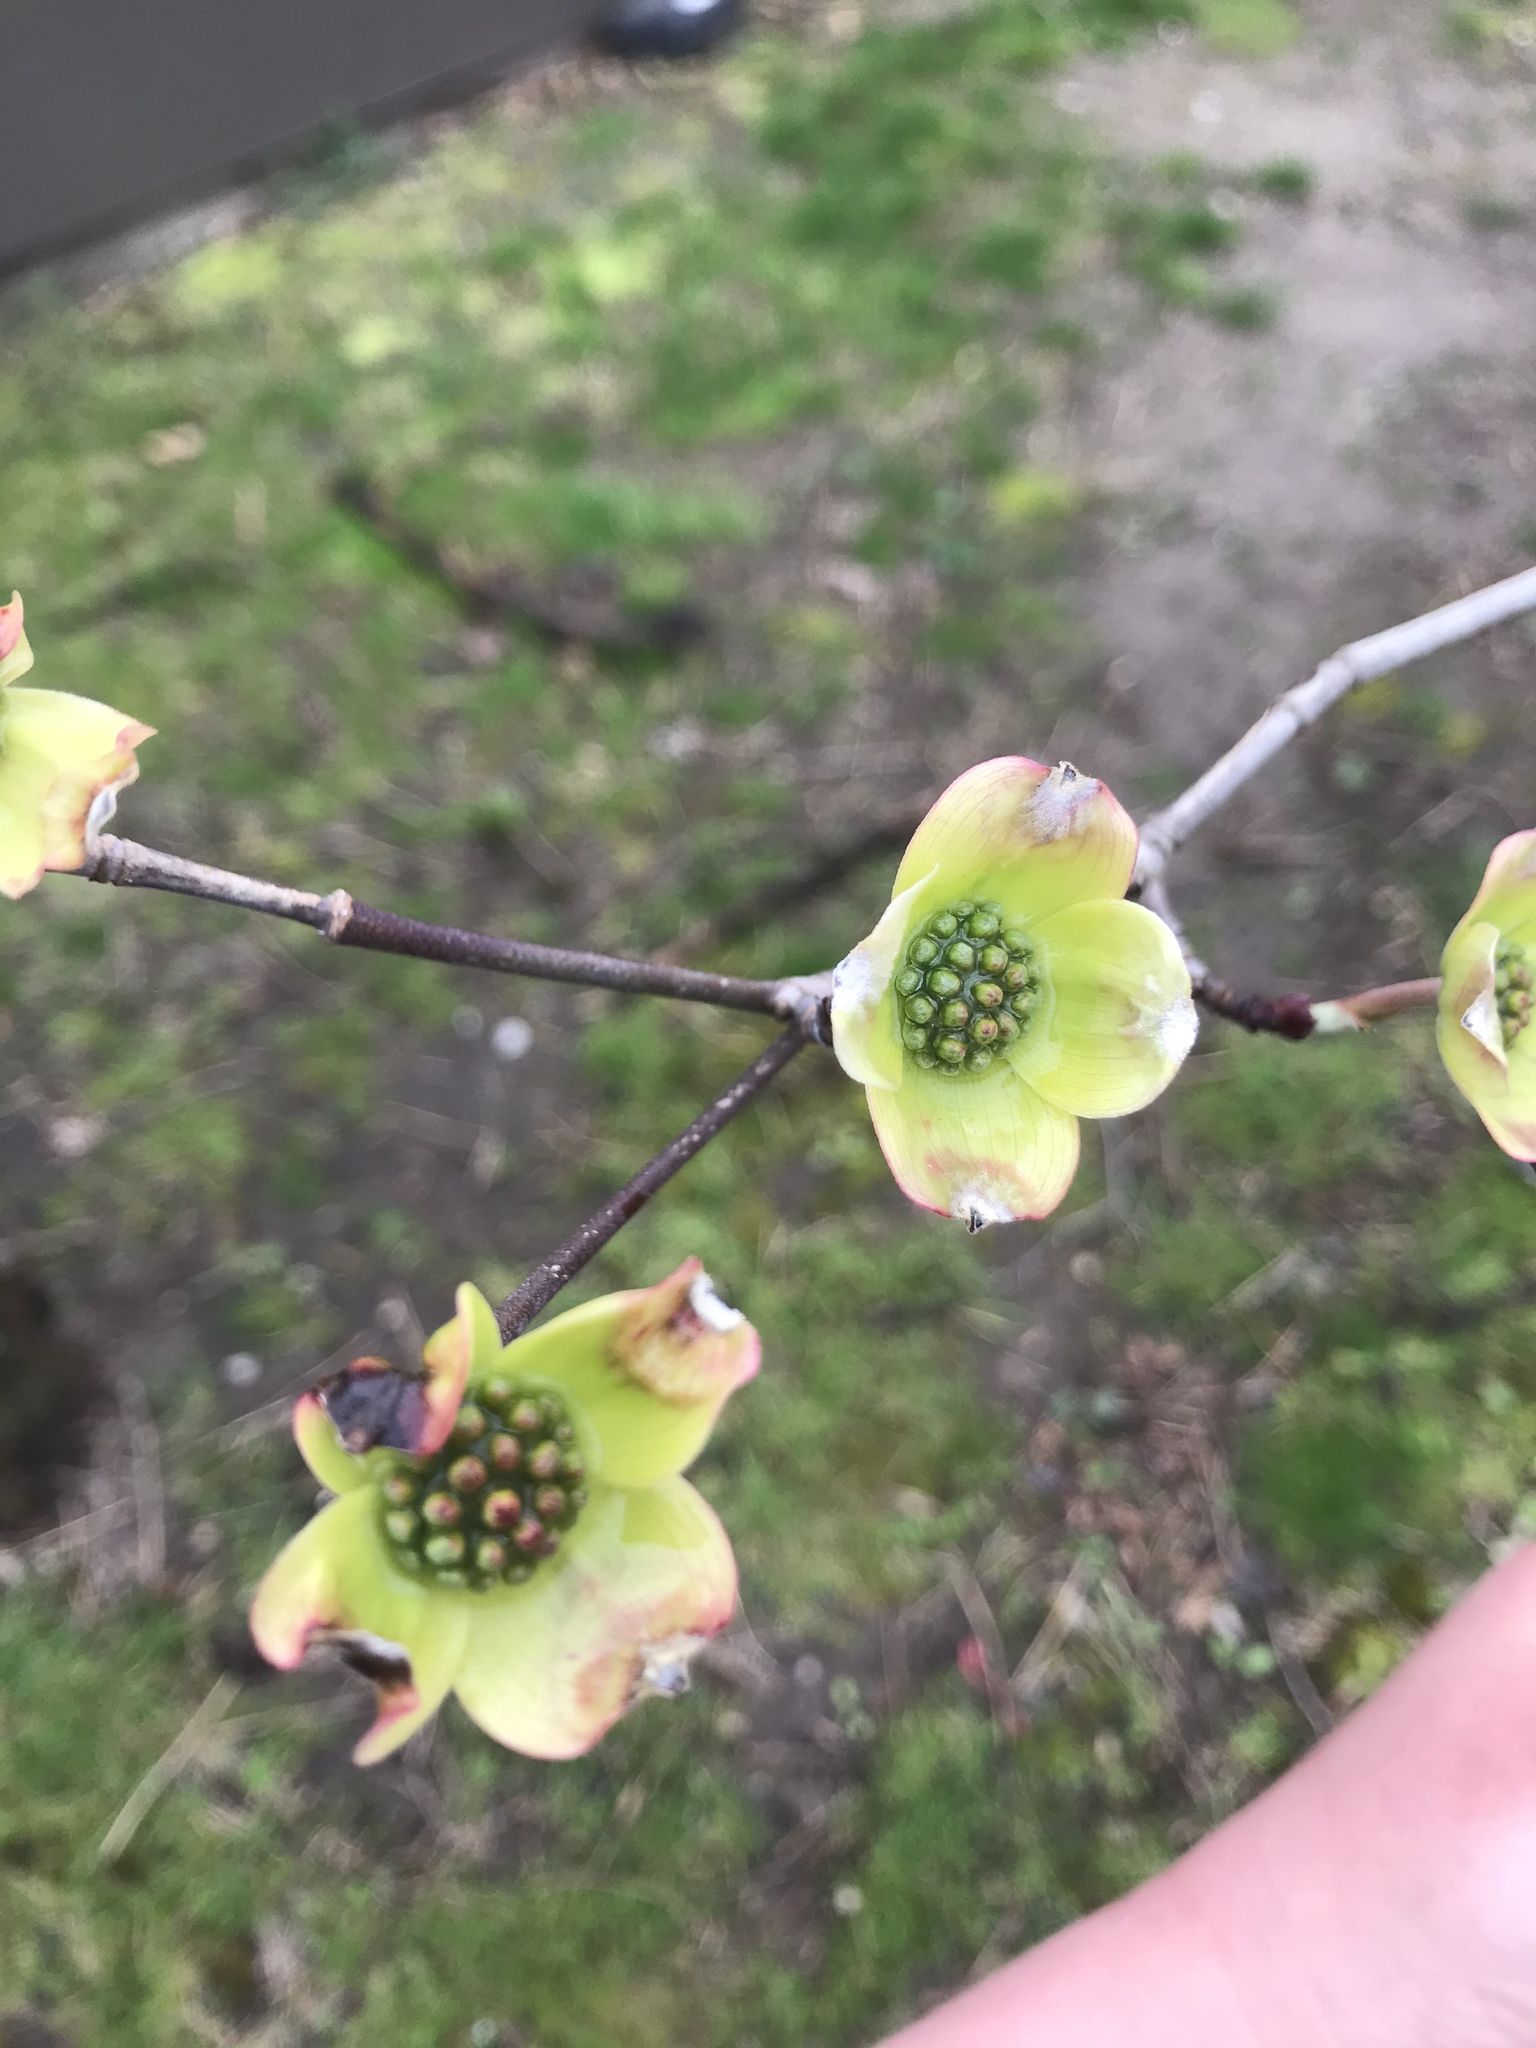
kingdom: Plantae
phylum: Tracheophyta
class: Magnoliopsida
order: Cornales
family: Cornaceae
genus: Cornus
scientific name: Cornus florida
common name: Flowering dogwood
